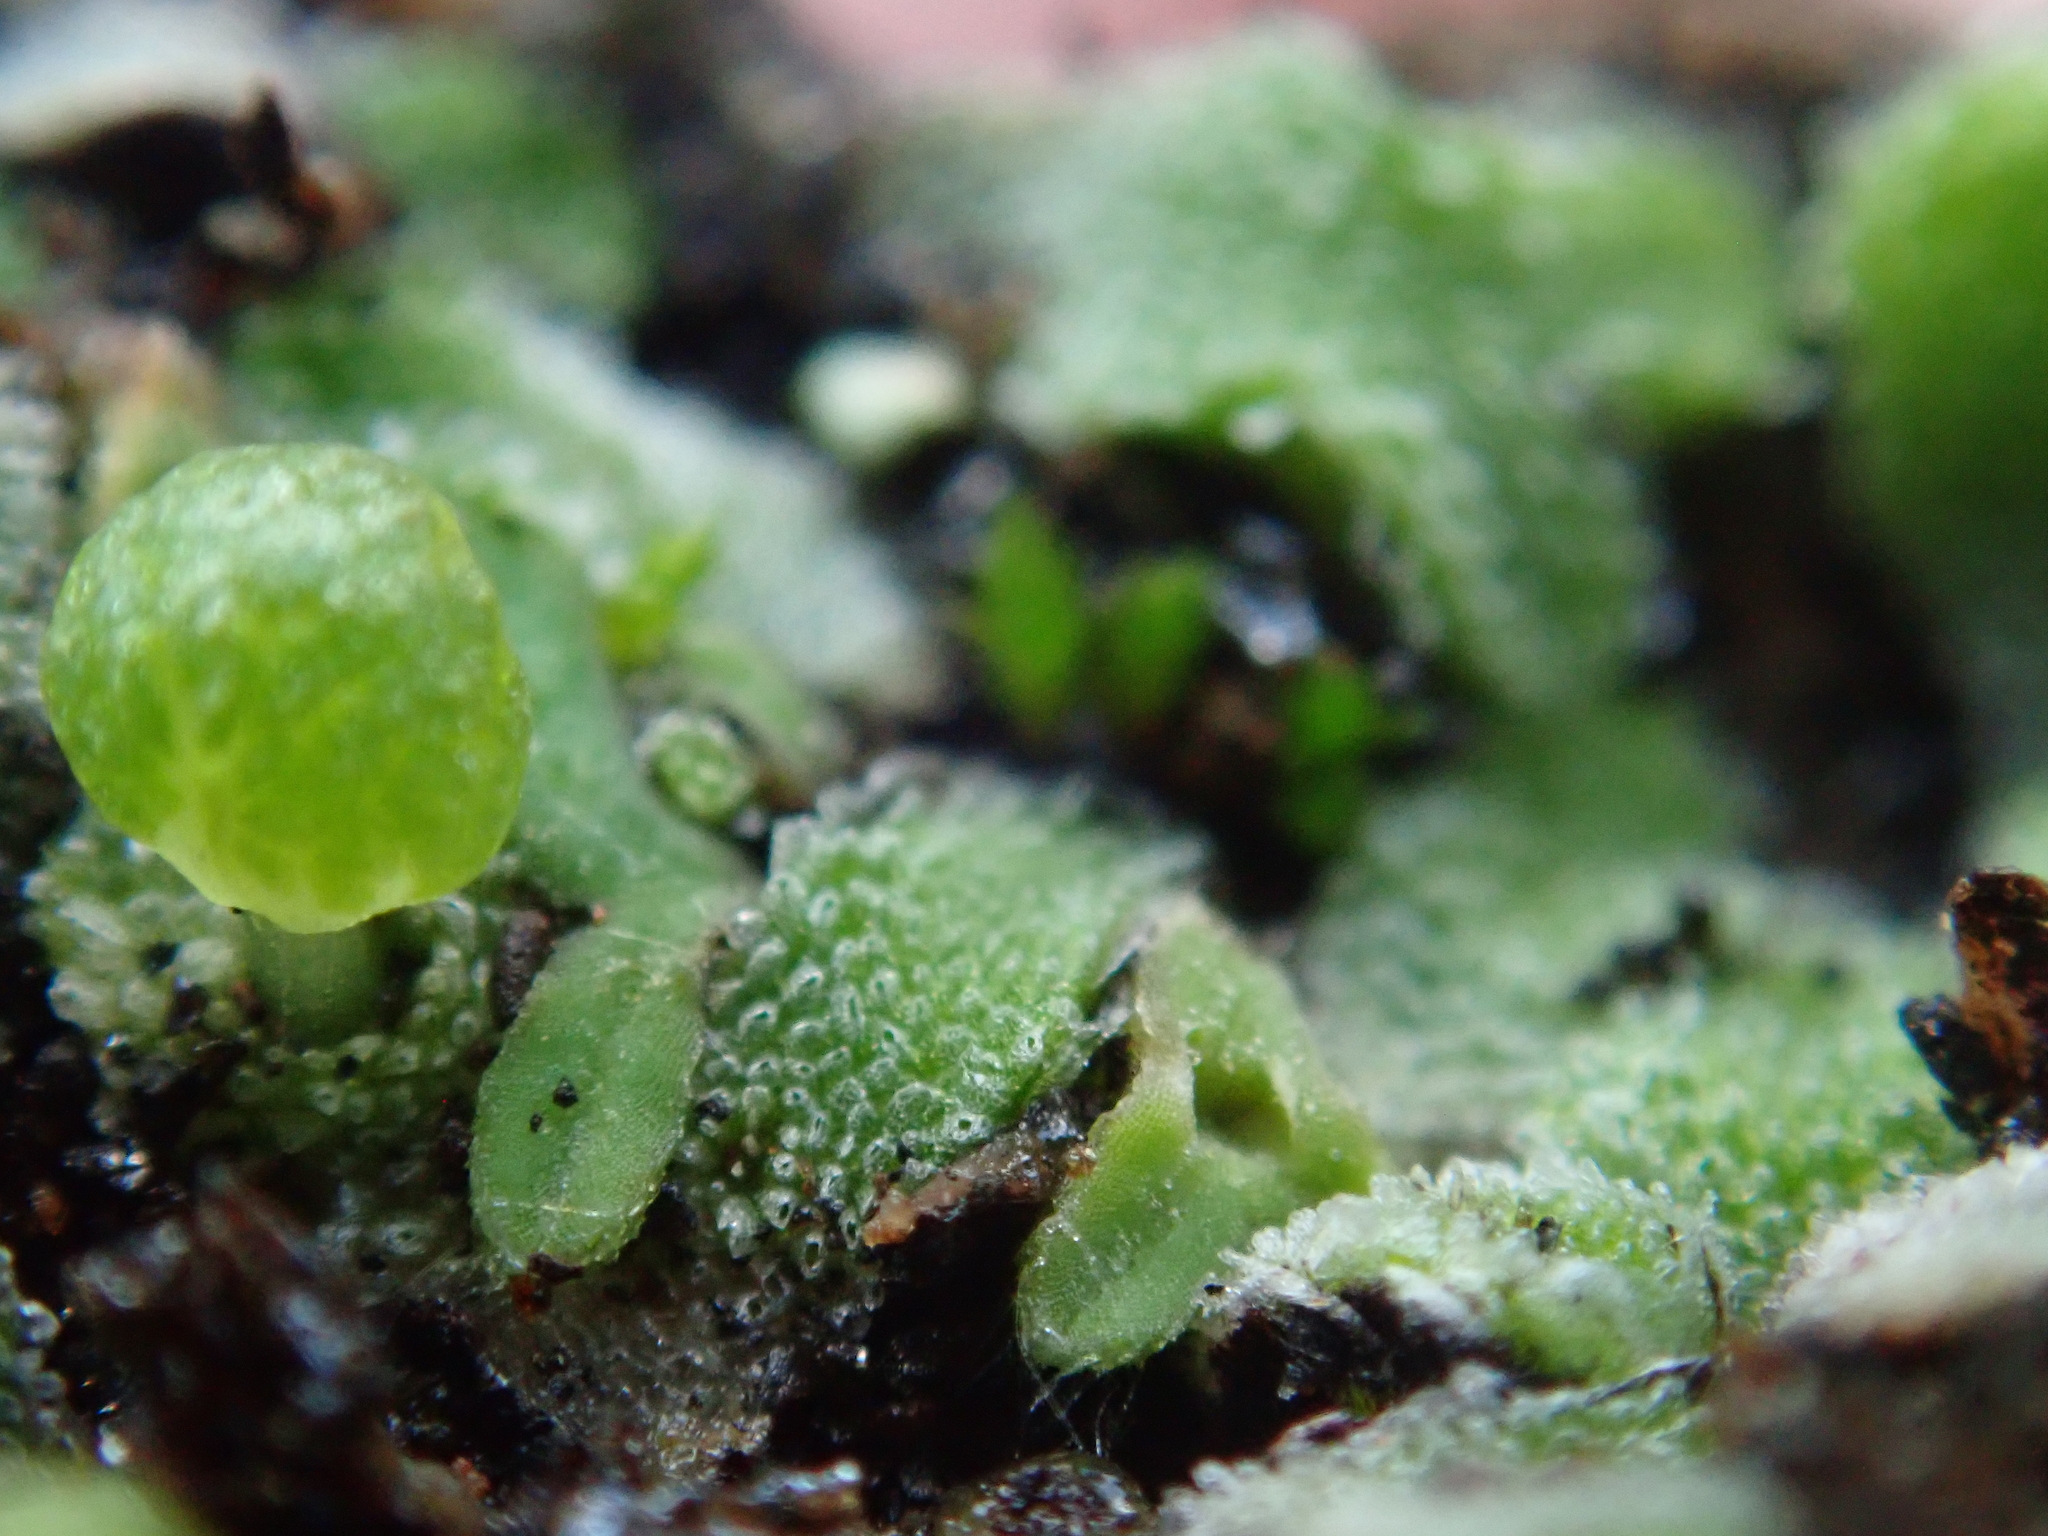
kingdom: Plantae
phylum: Marchantiophyta
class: Marchantiopsida
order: Marchantiales
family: Corsiniaceae
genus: Exormotheca
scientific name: Exormotheca pustulosa
